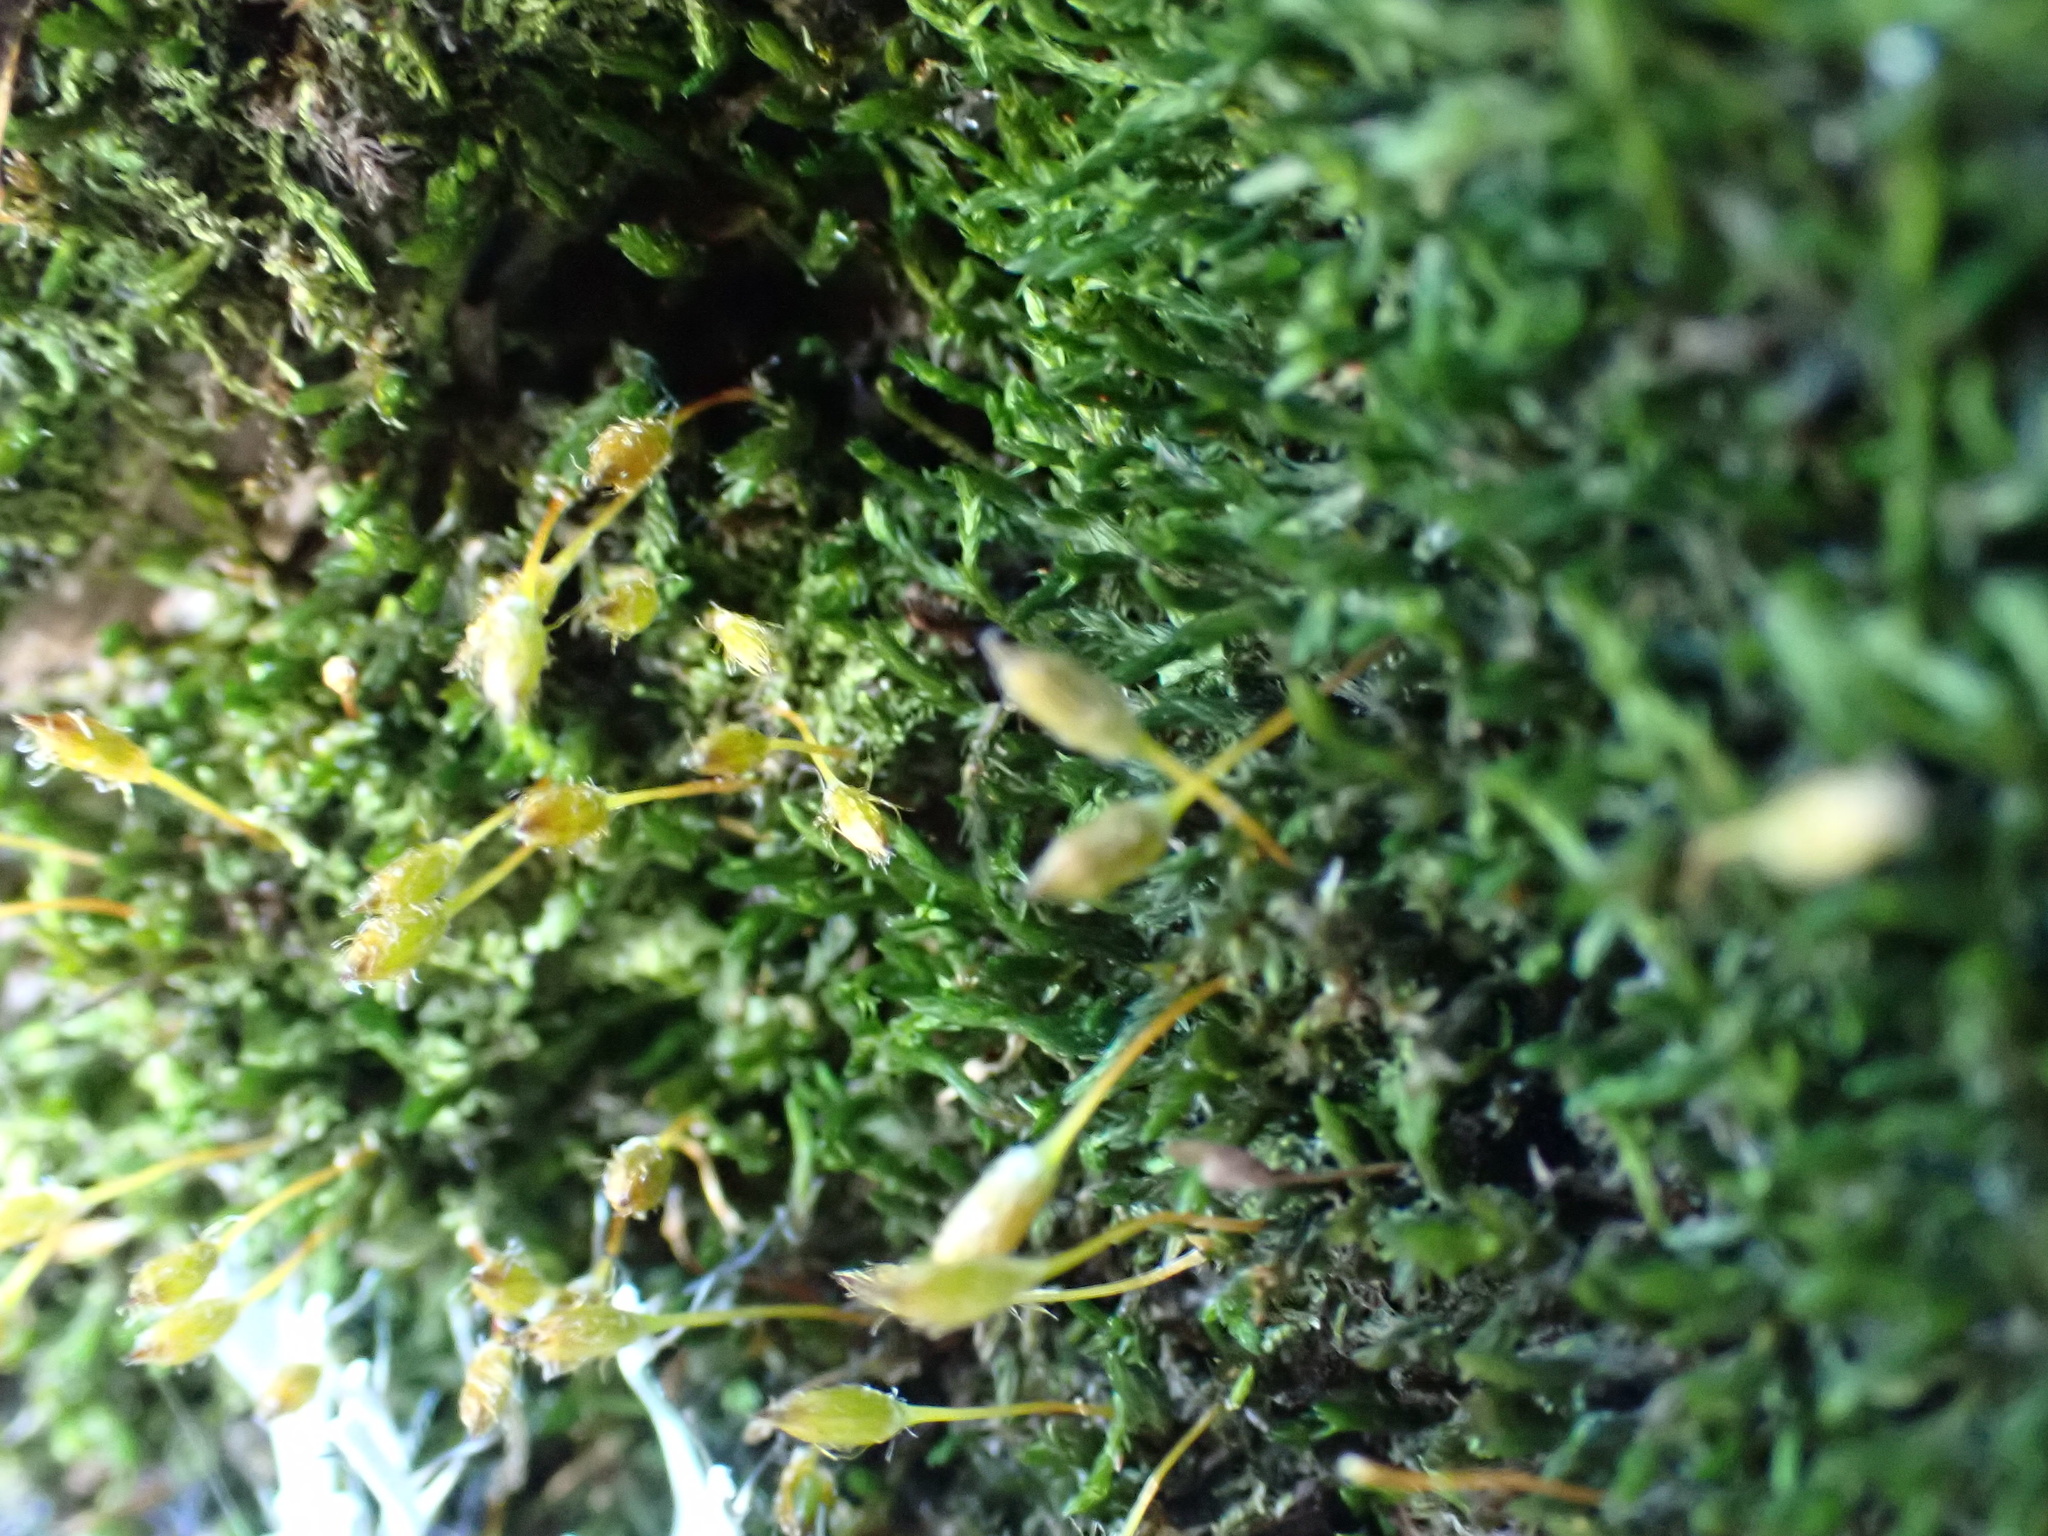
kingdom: Plantae
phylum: Bryophyta
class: Bryopsida
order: Orthotrichales
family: Orthotrichaceae
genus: Macrocoma
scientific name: Macrocoma tenuis
